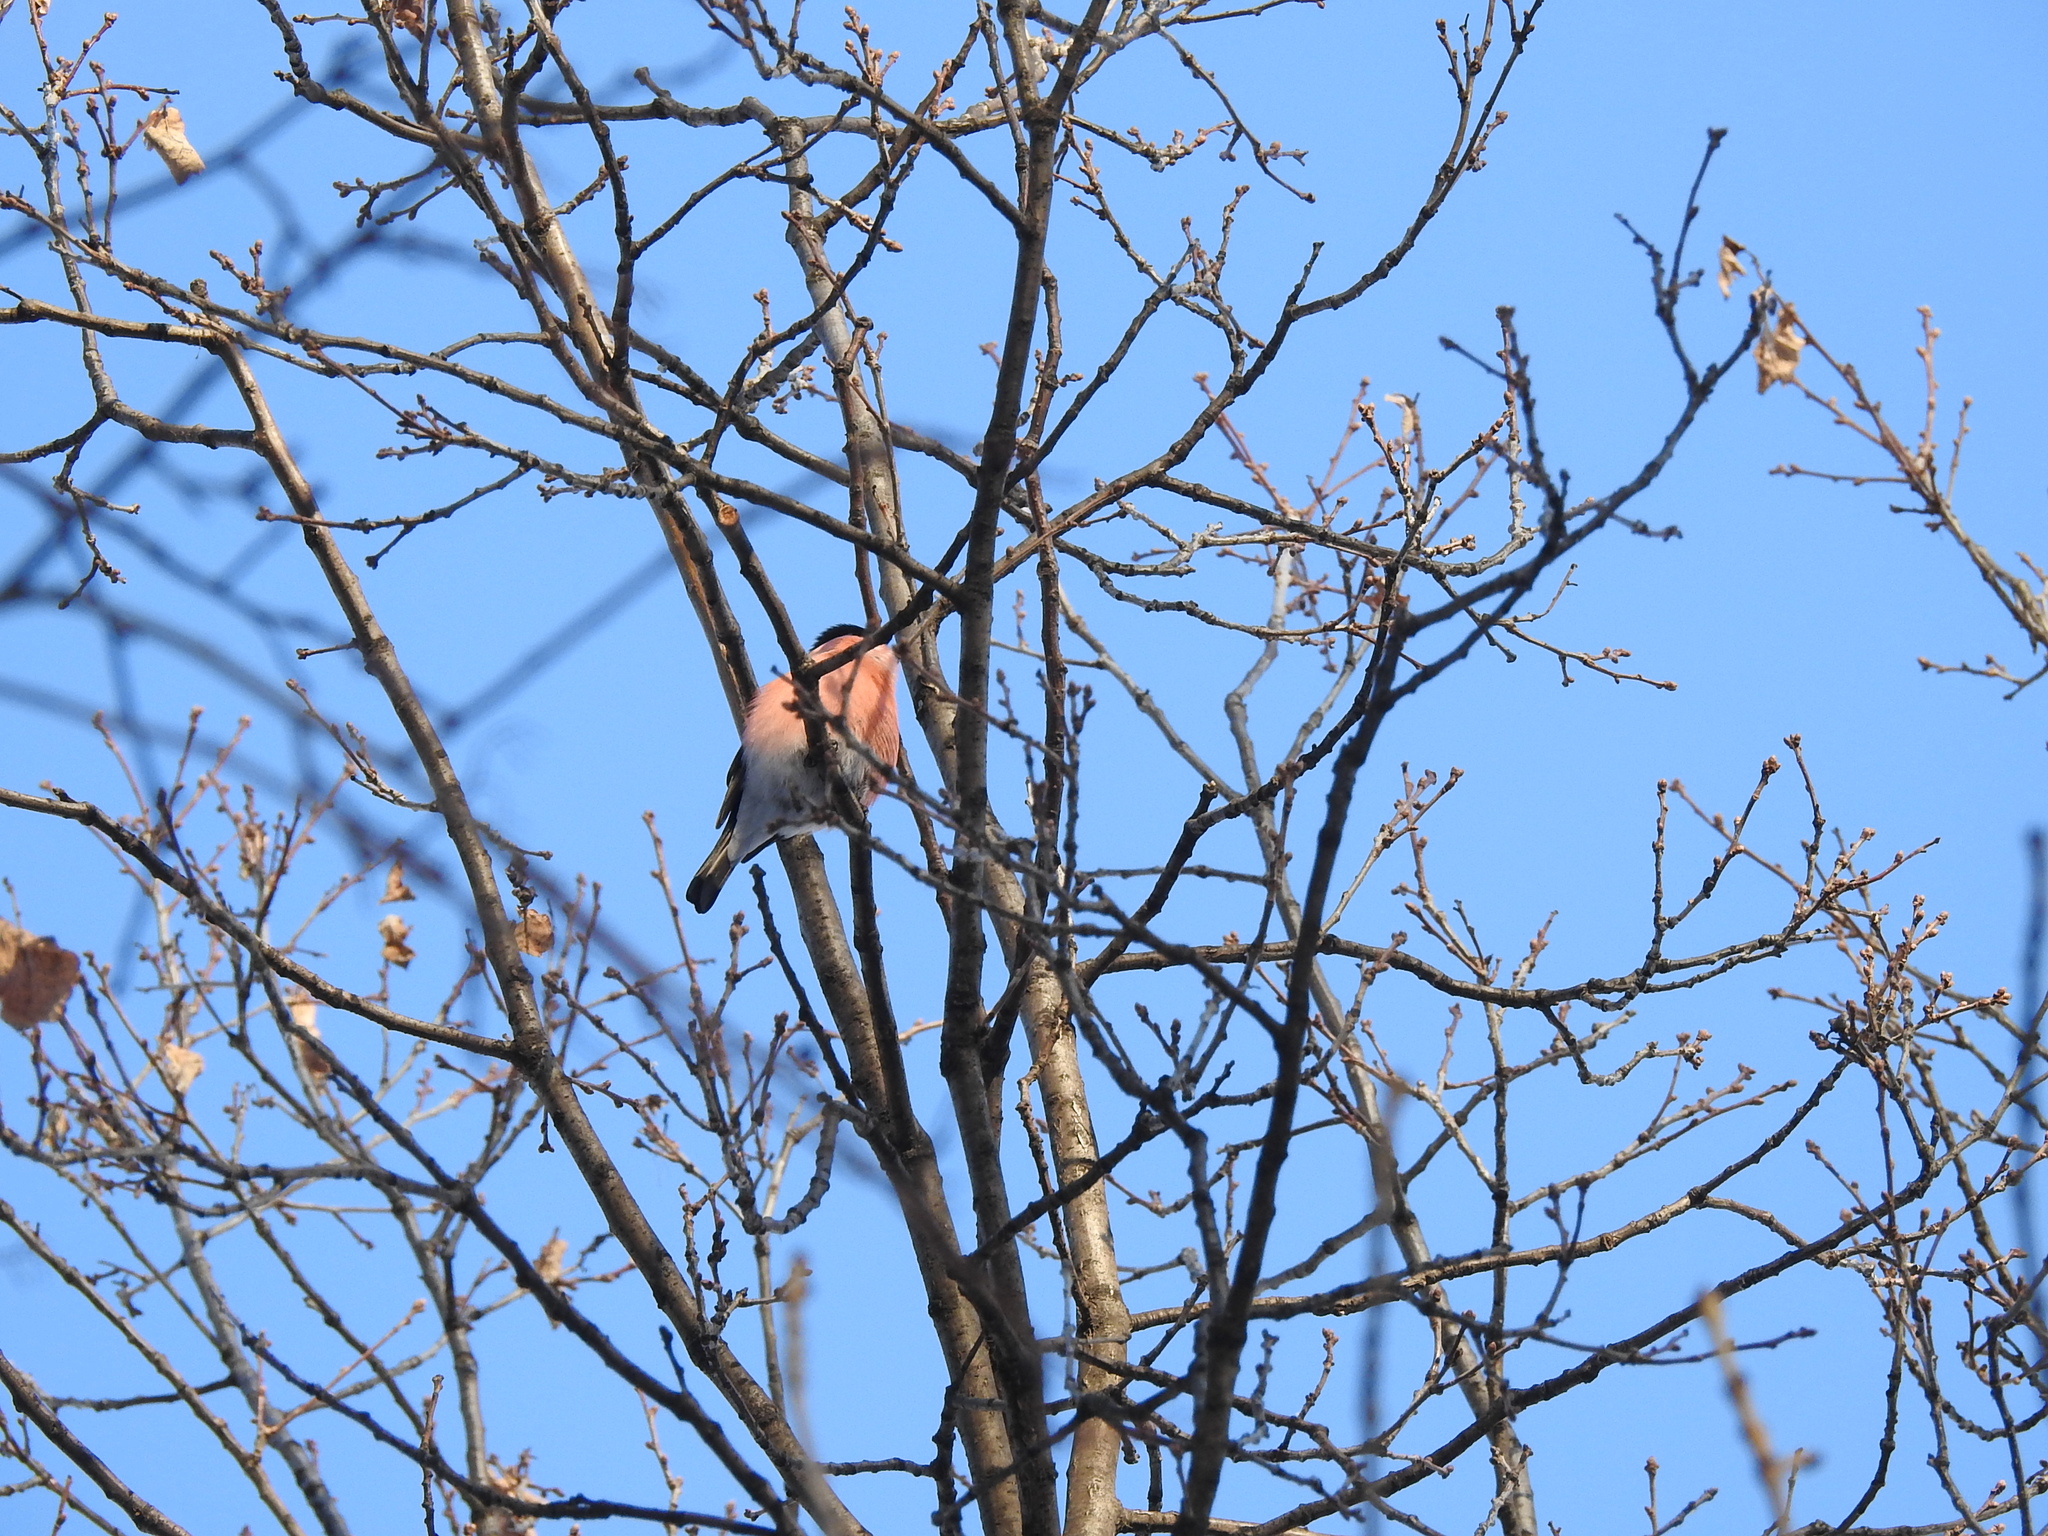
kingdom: Animalia
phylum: Chordata
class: Aves
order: Passeriformes
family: Fringillidae
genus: Pyrrhula
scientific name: Pyrrhula pyrrhula
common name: Eurasian bullfinch
